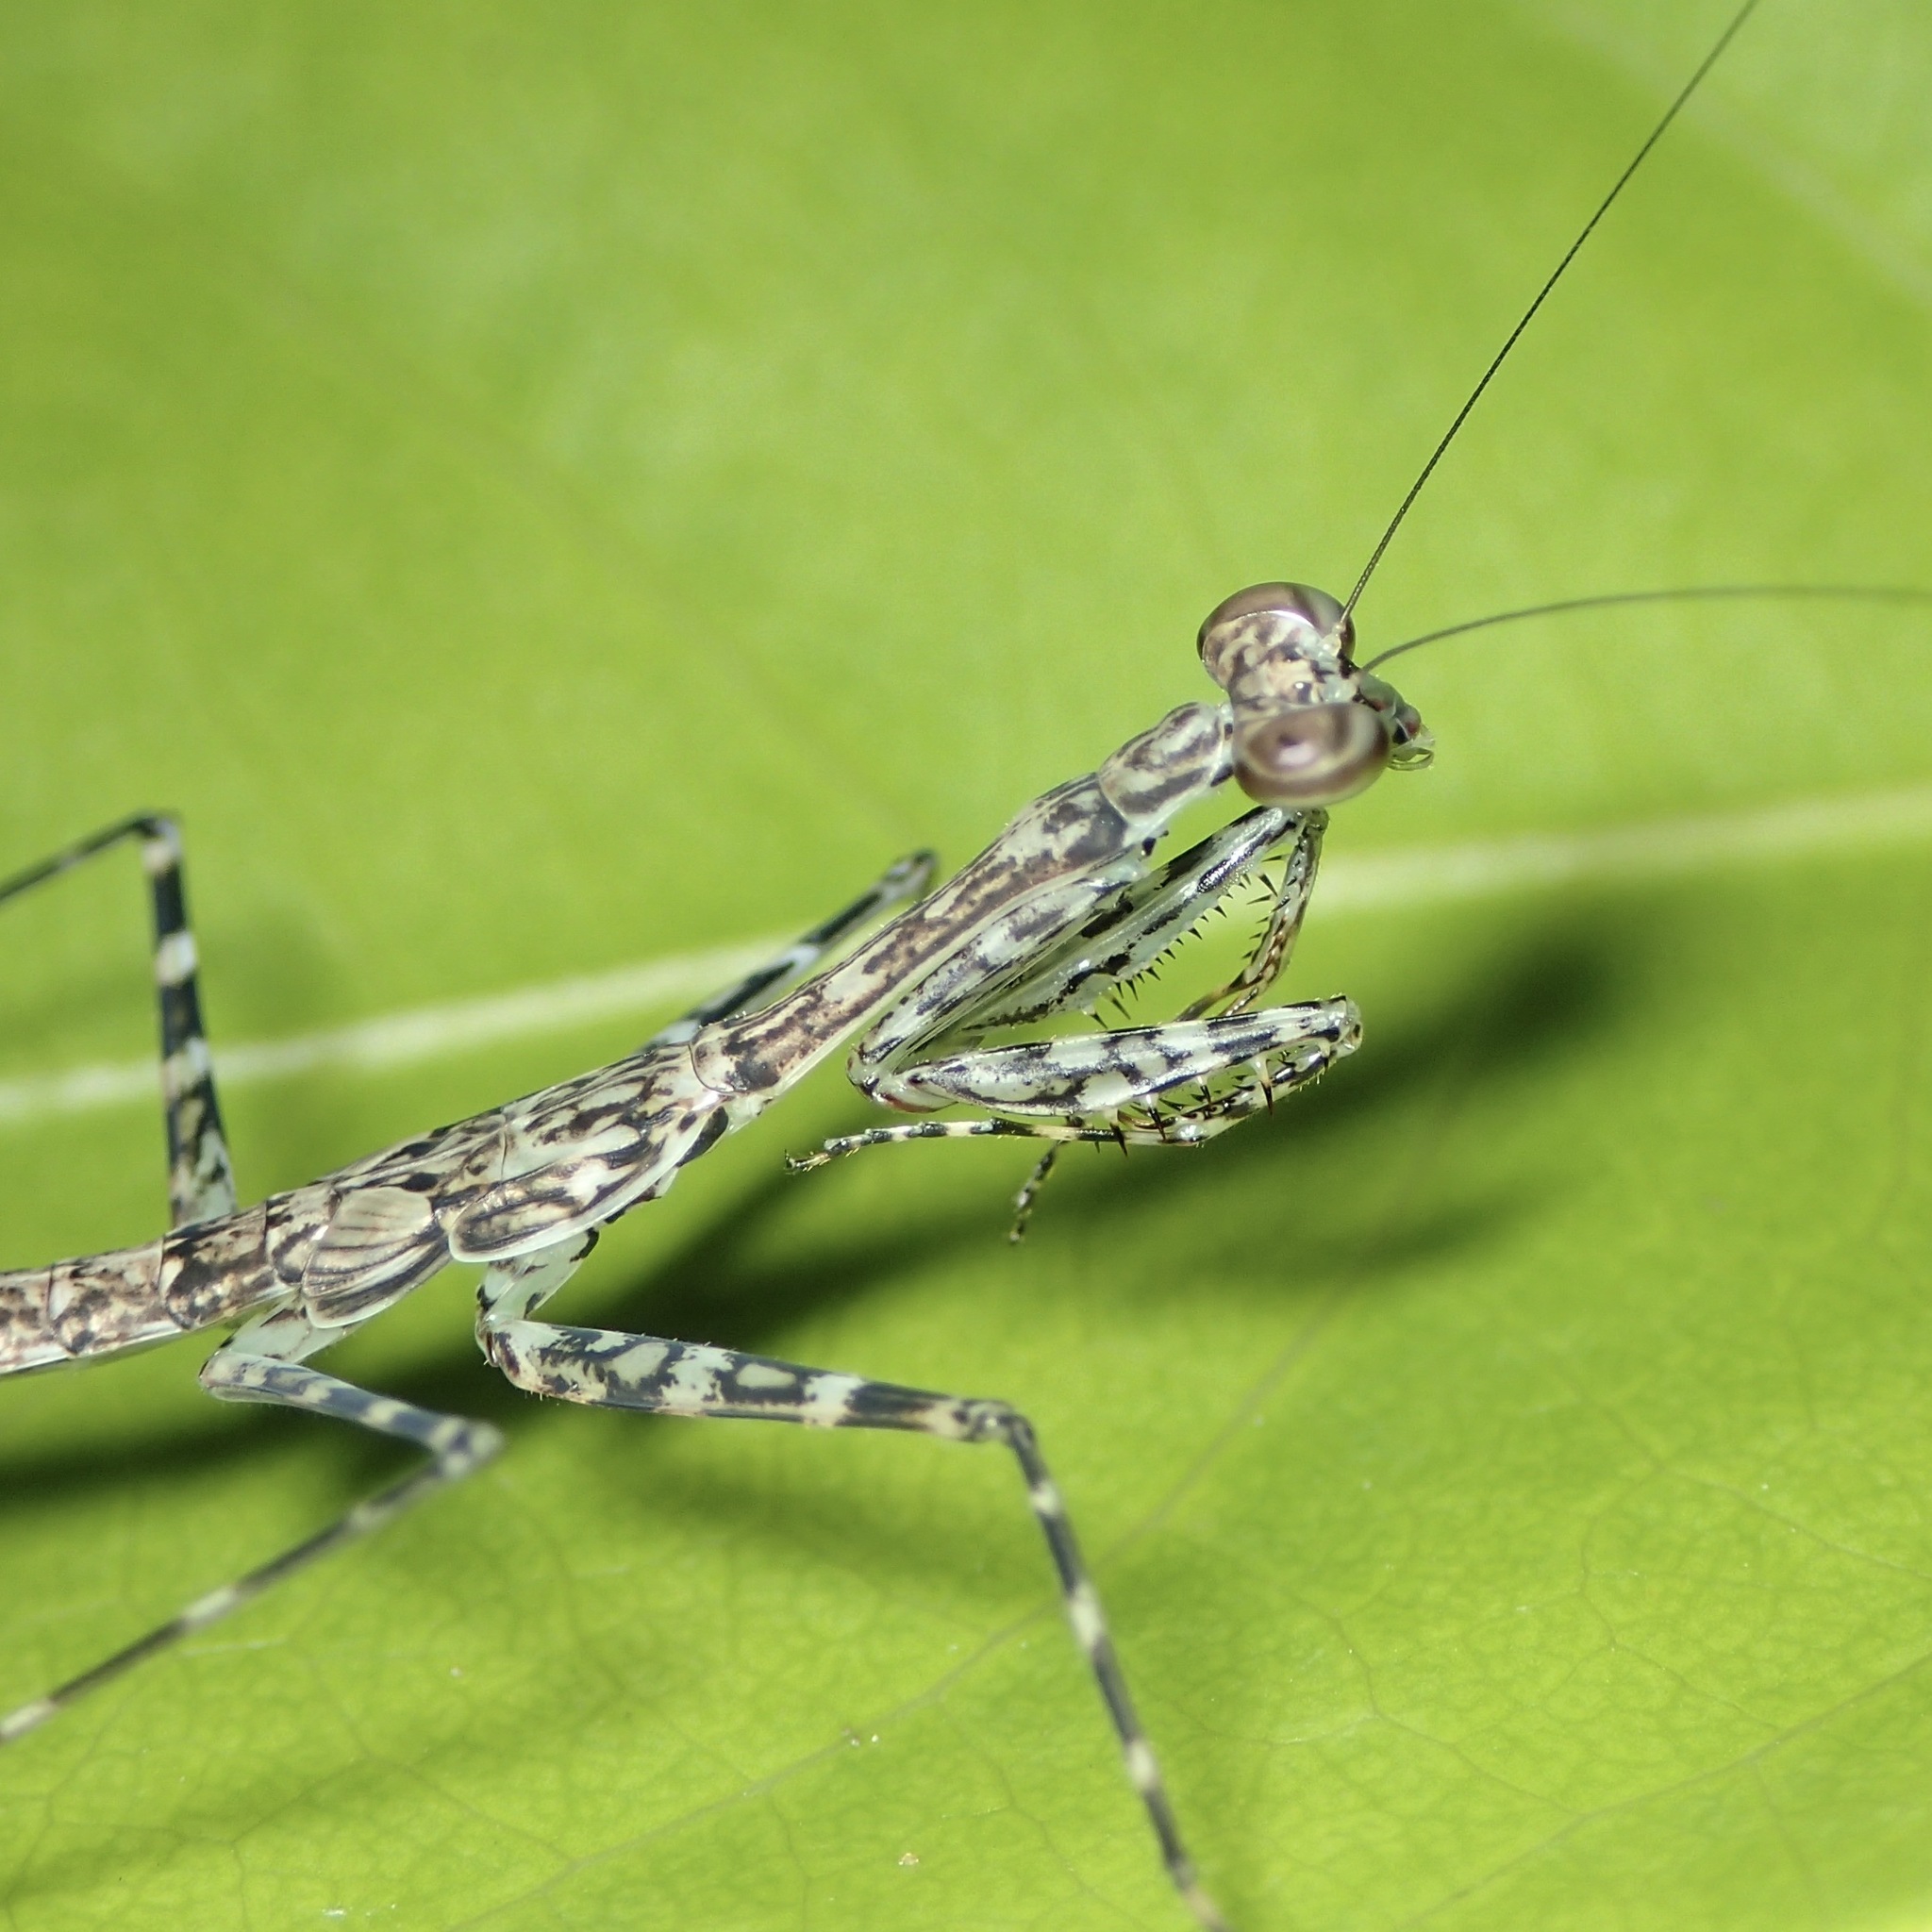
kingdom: Animalia
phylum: Arthropoda
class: Insecta
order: Mantodea
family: Nanomantidae
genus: Ciulfina
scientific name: Ciulfina rentzi
